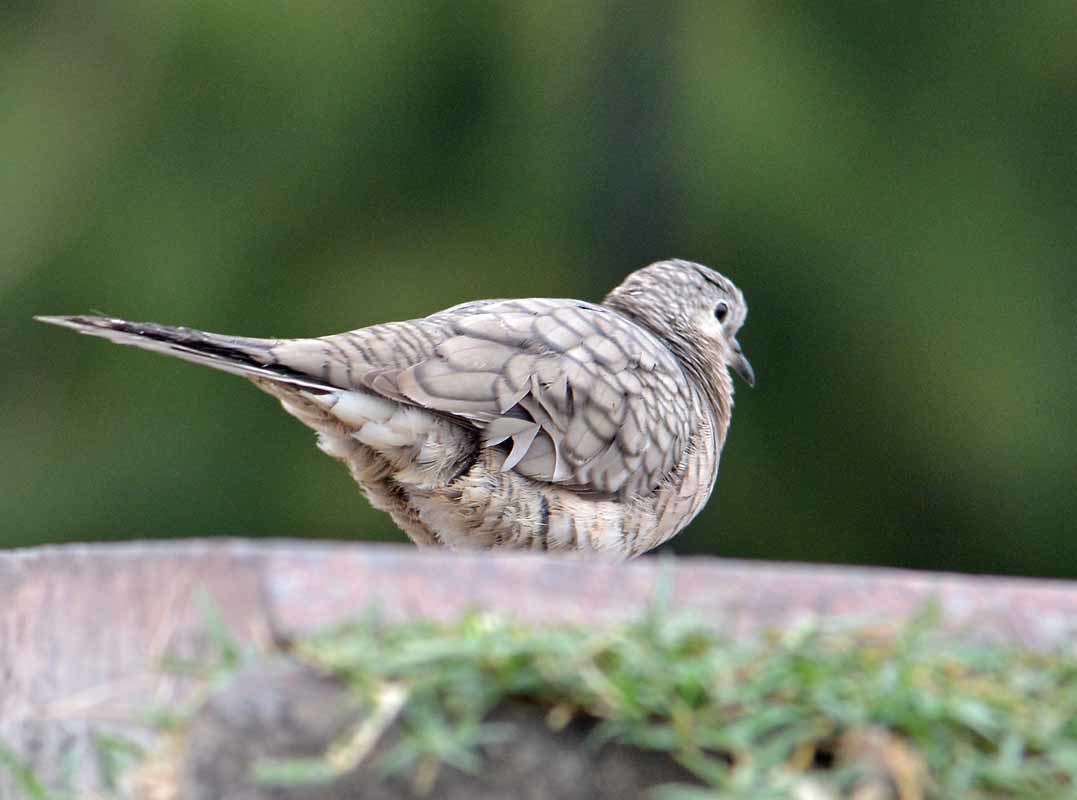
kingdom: Animalia
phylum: Chordata
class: Aves
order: Columbiformes
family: Columbidae
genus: Columbina
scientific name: Columbina inca
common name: Inca dove
